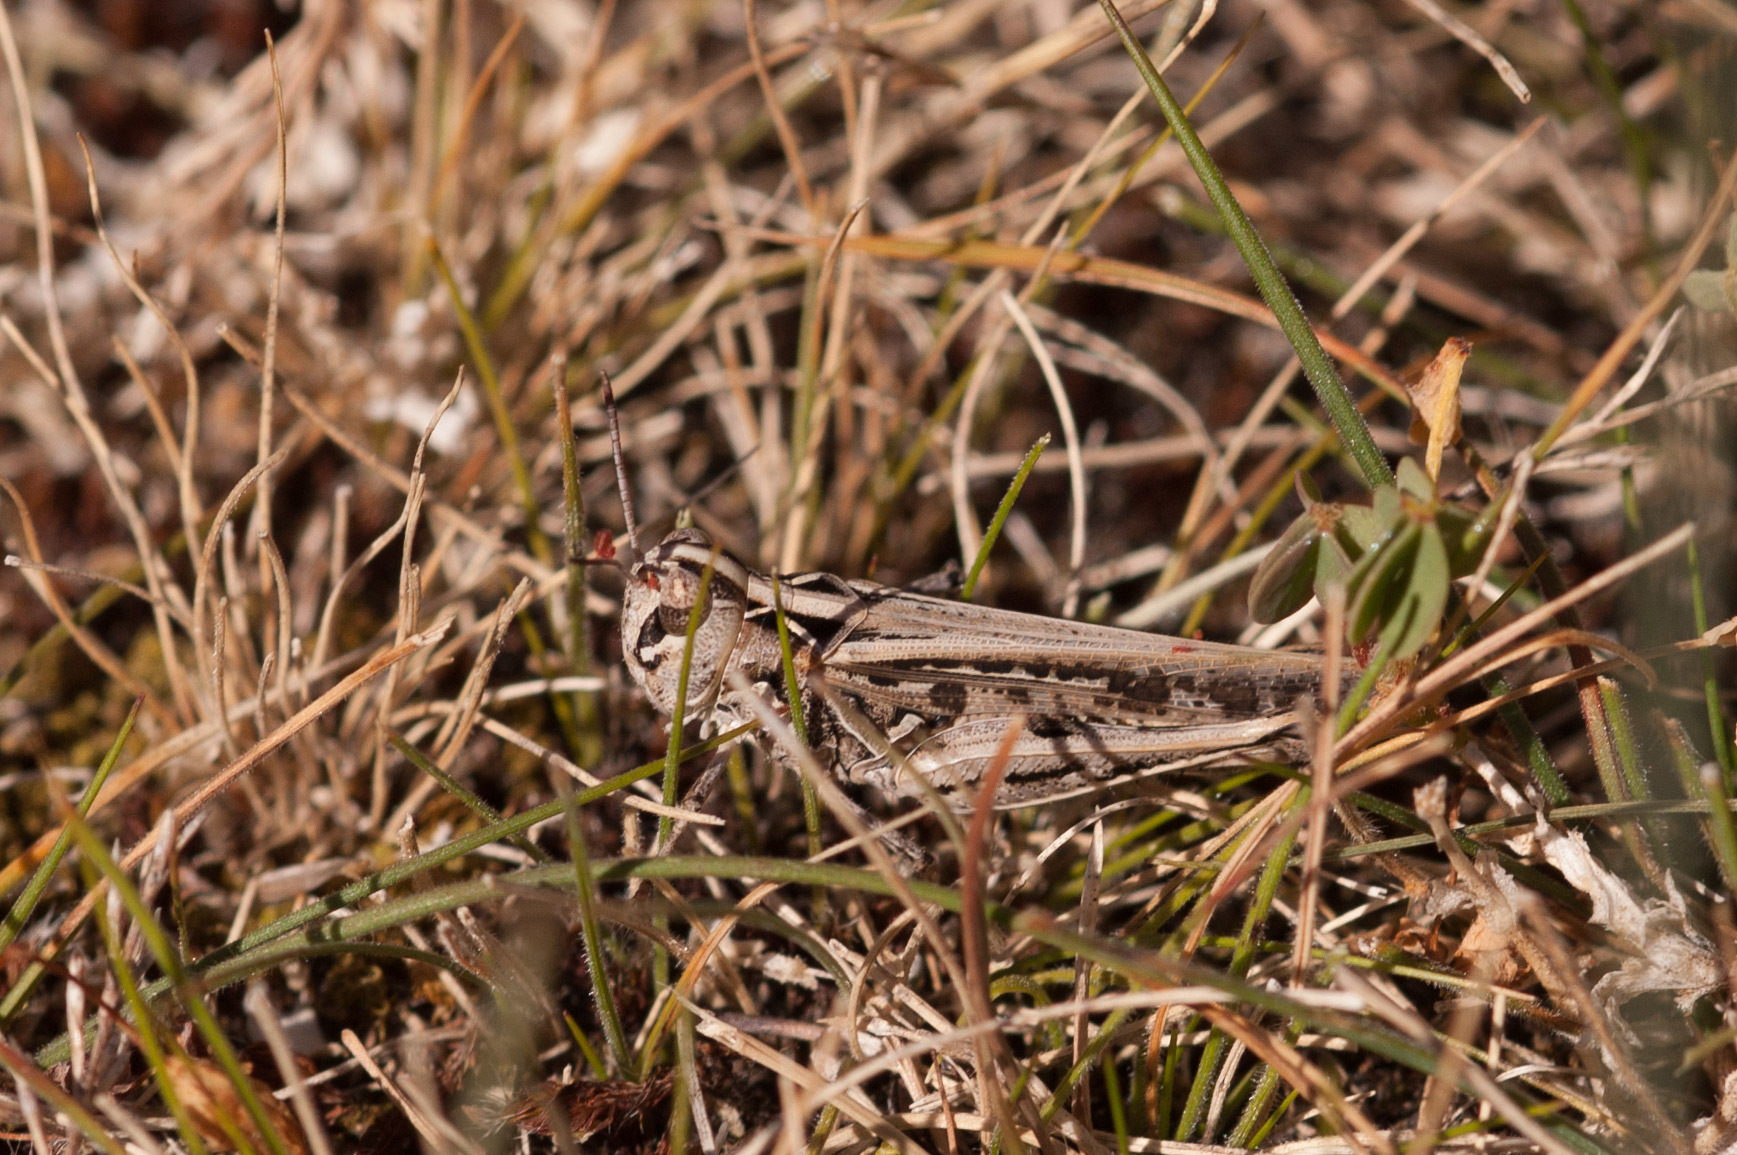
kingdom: Animalia
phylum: Arthropoda
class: Insecta
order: Orthoptera
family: Acrididae
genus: Austroicetes
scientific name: Austroicetes vulgaris
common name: Southeastern austroicetes
